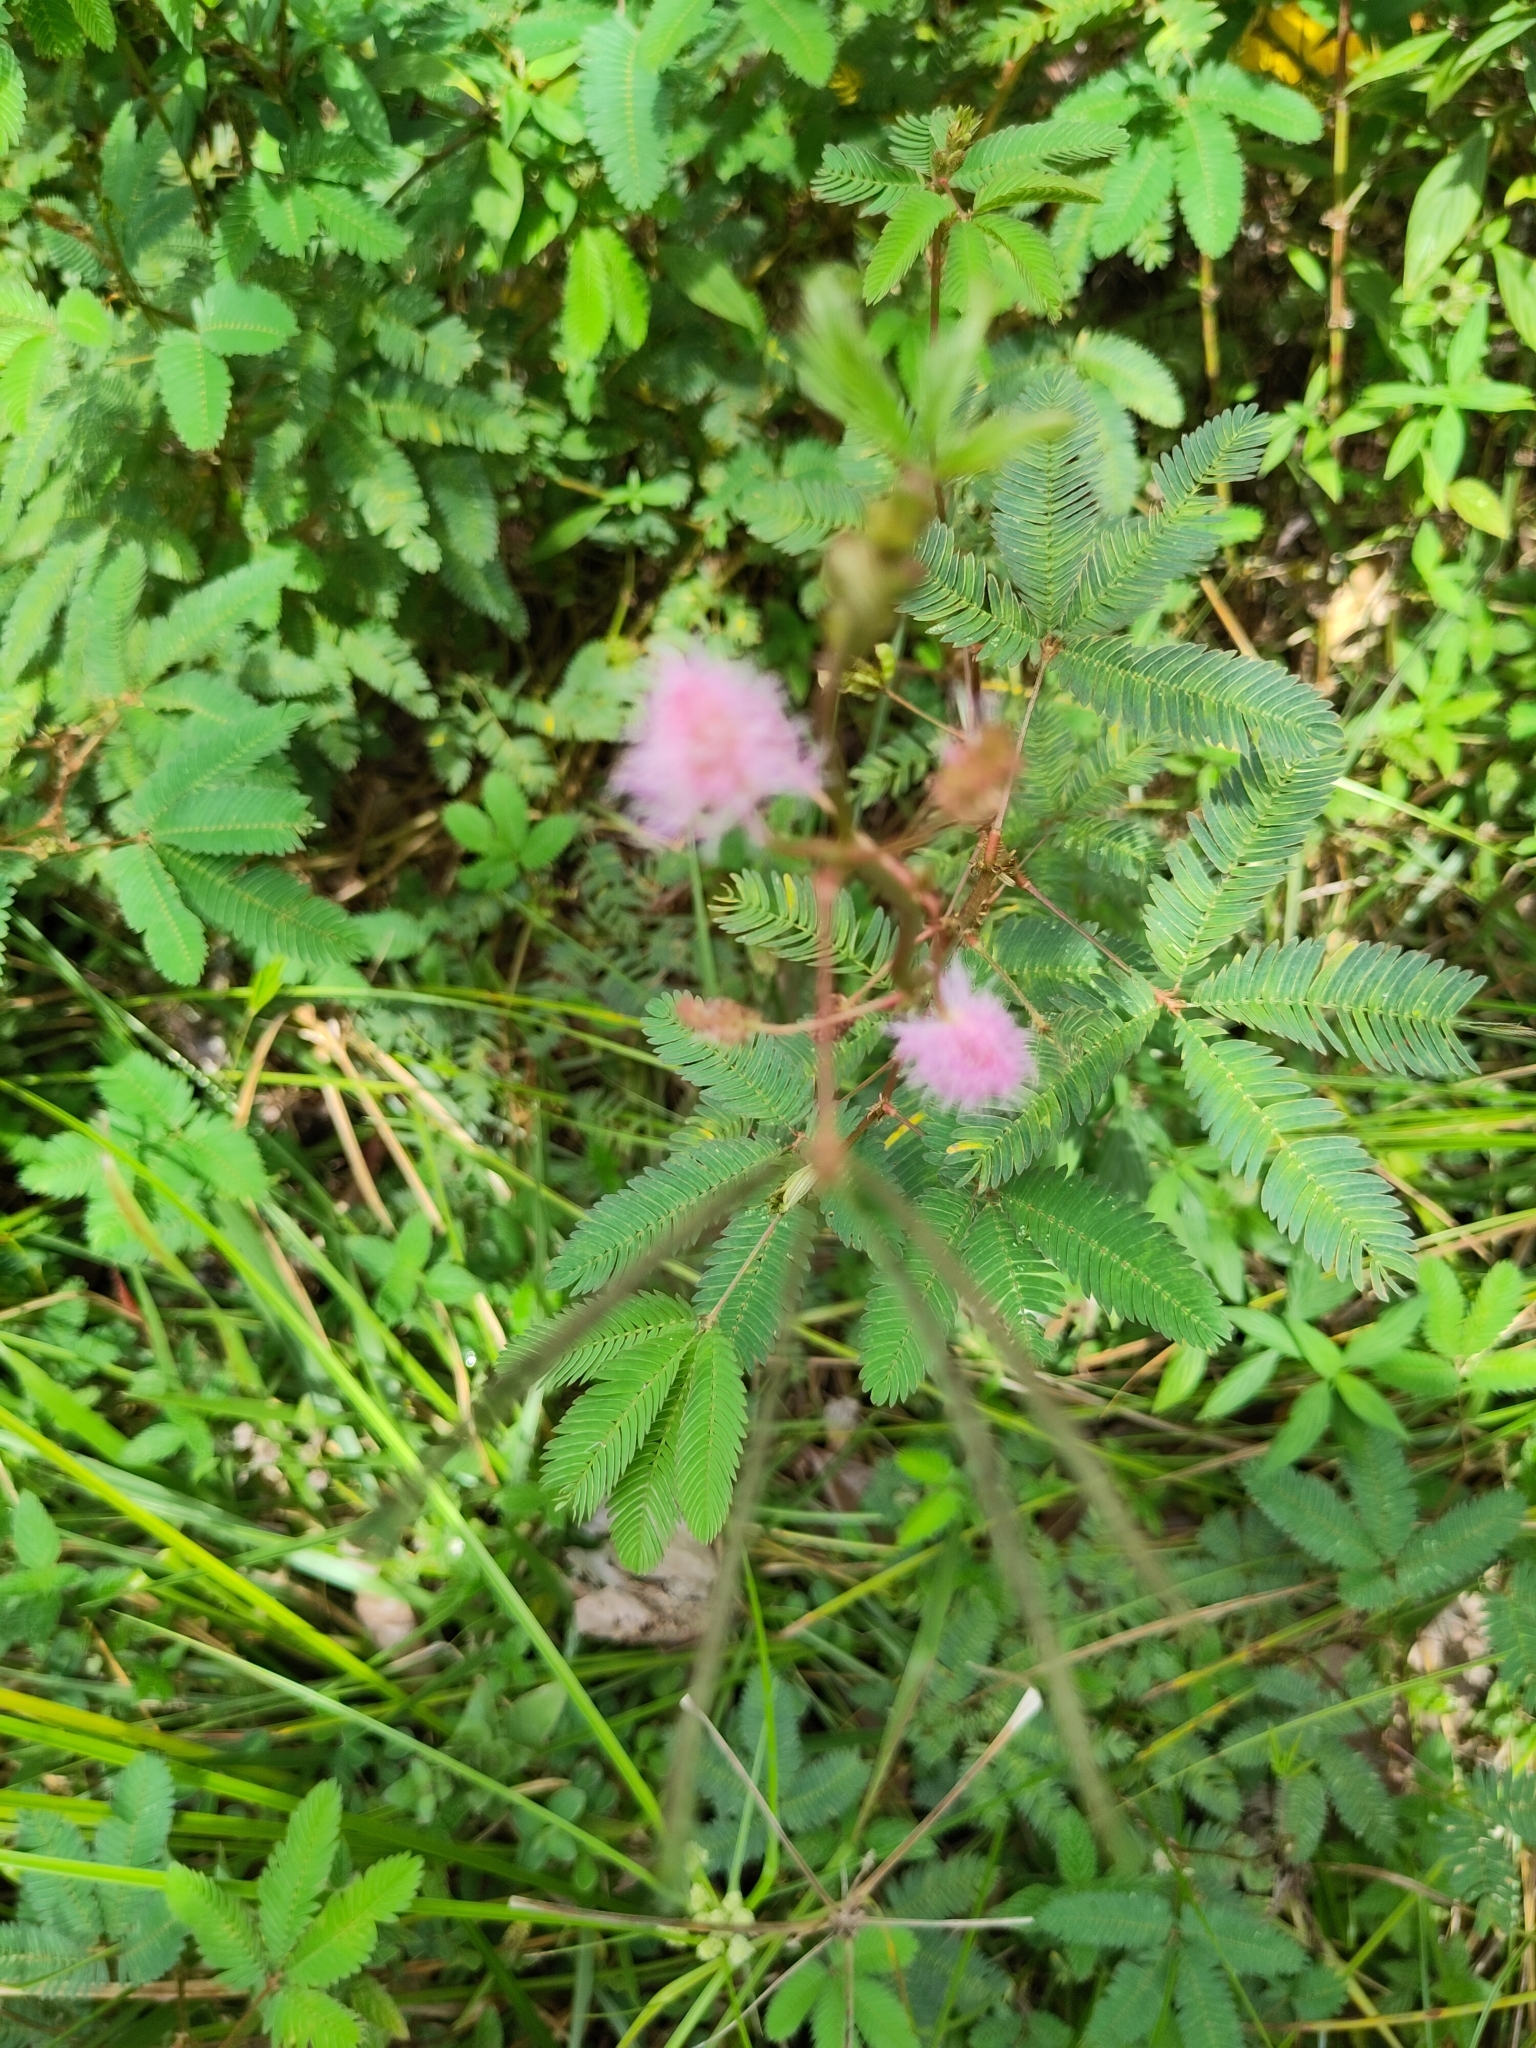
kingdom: Plantae
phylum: Tracheophyta
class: Magnoliopsida
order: Fabales
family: Fabaceae
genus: Mimosa
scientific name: Mimosa pudica
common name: Sensitive plant
